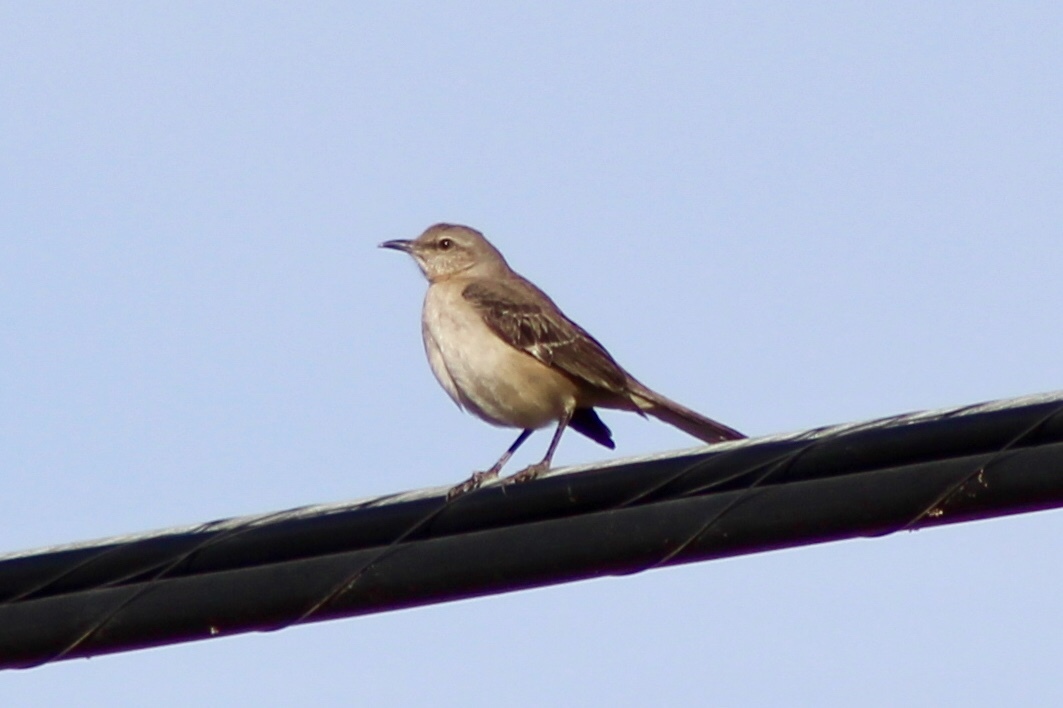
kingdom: Animalia
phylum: Chordata
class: Aves
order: Passeriformes
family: Mimidae
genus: Mimus
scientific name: Mimus polyglottos
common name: Northern mockingbird
